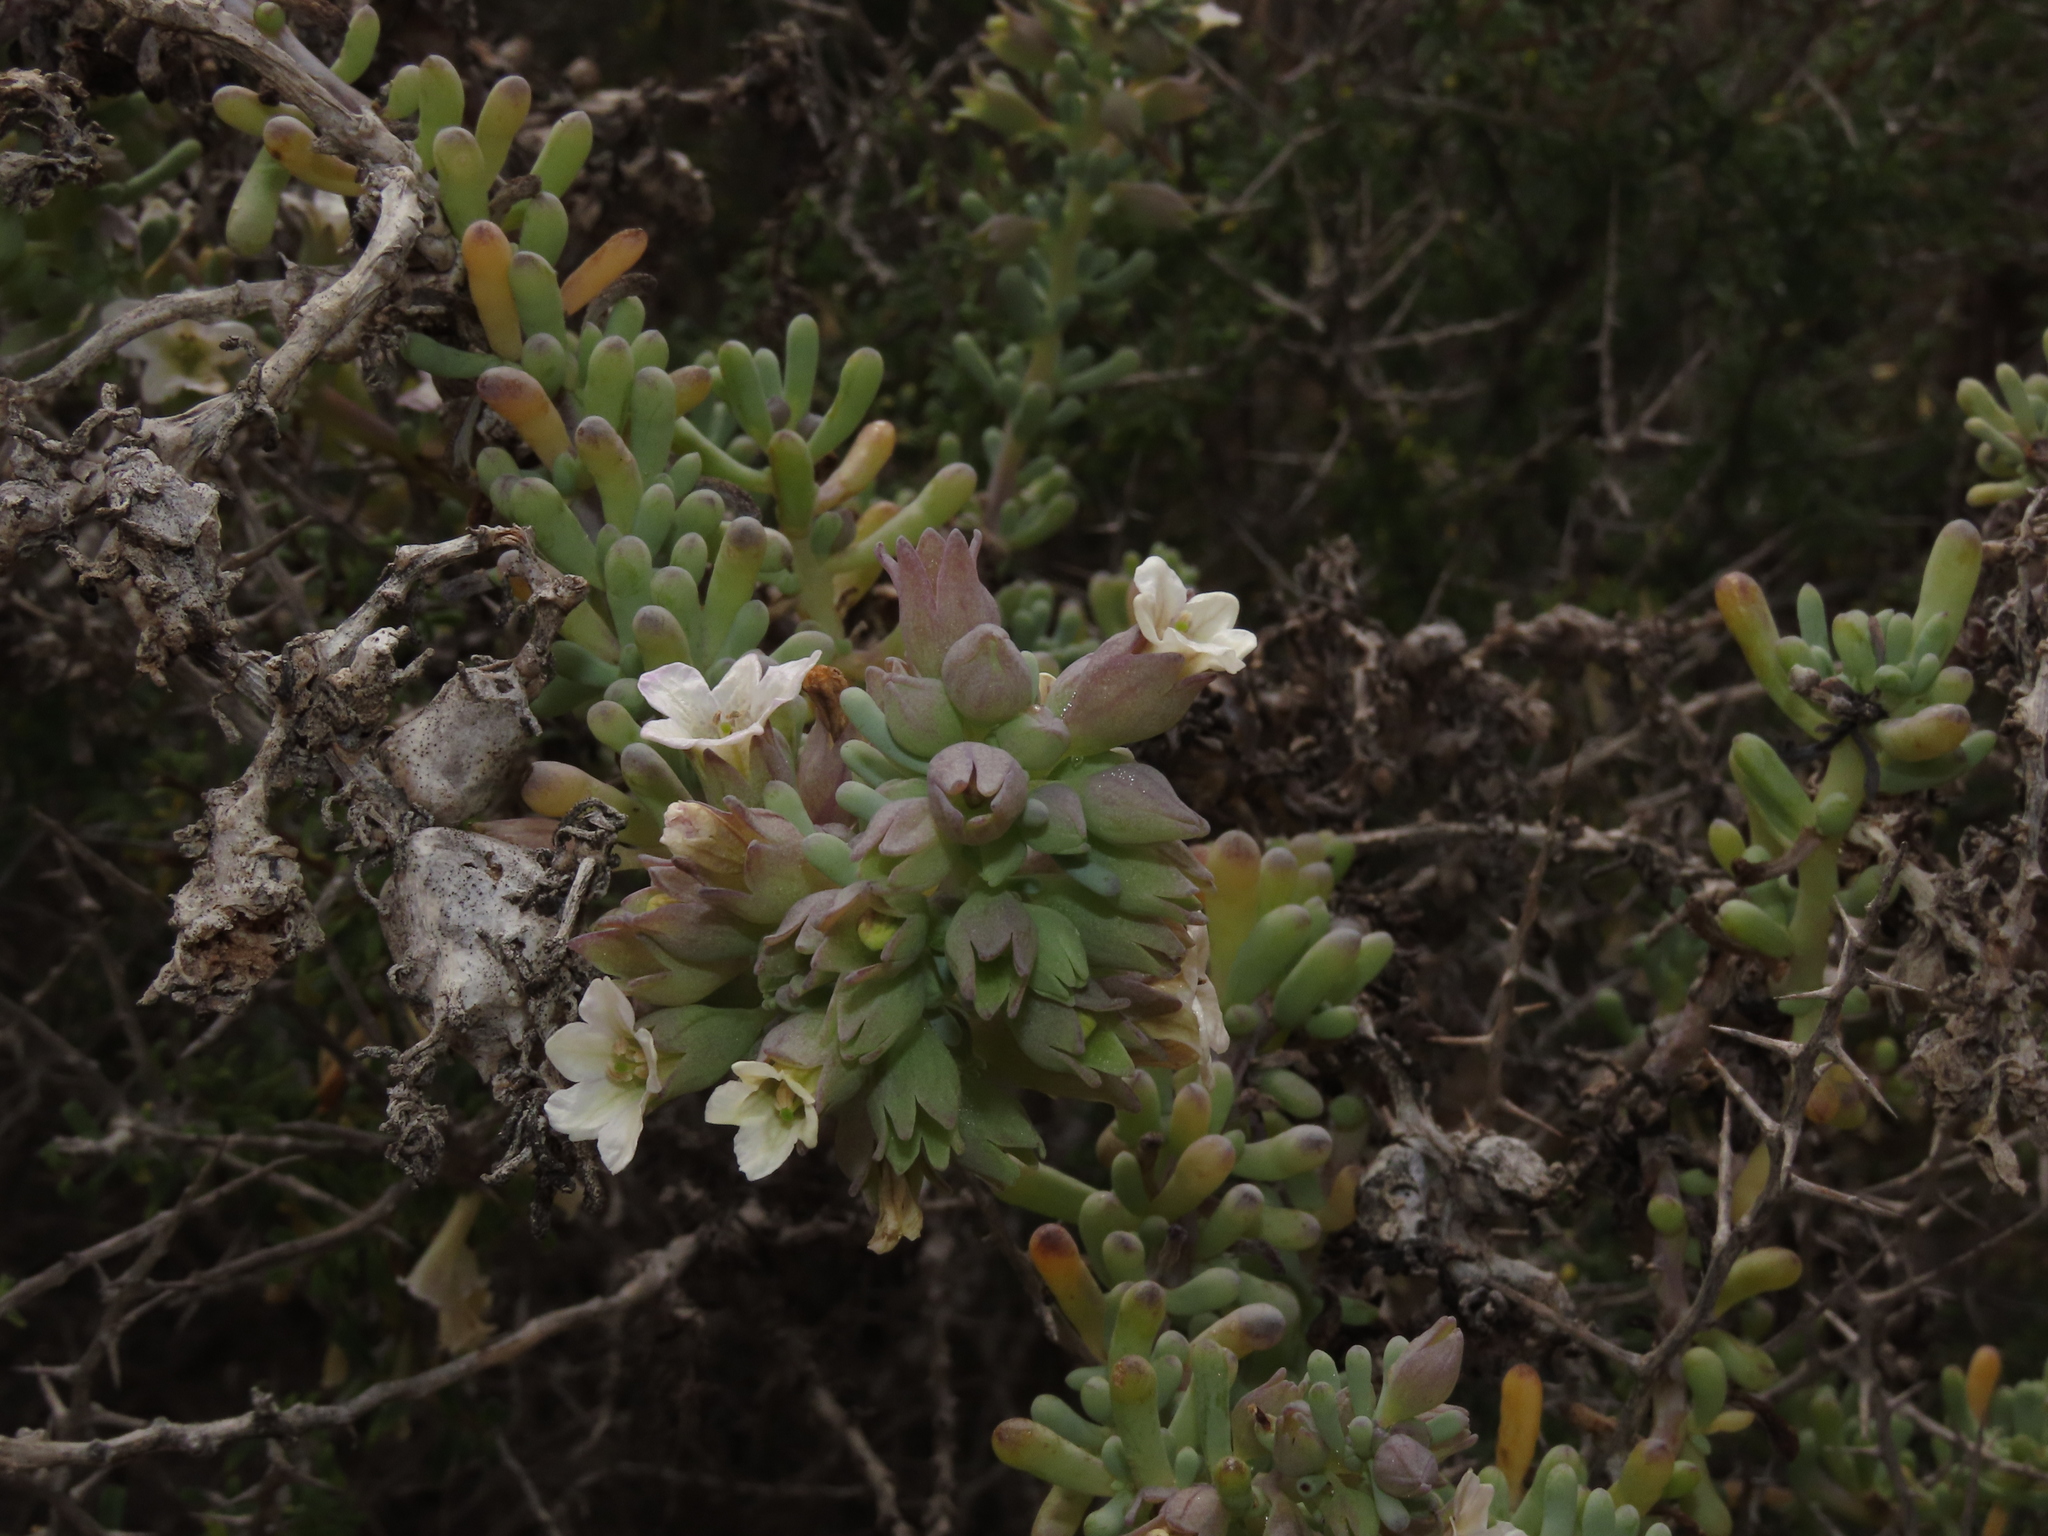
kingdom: Plantae
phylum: Tracheophyta
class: Magnoliopsida
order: Solanales
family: Solanaceae
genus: Nolana
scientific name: Nolana glauca
